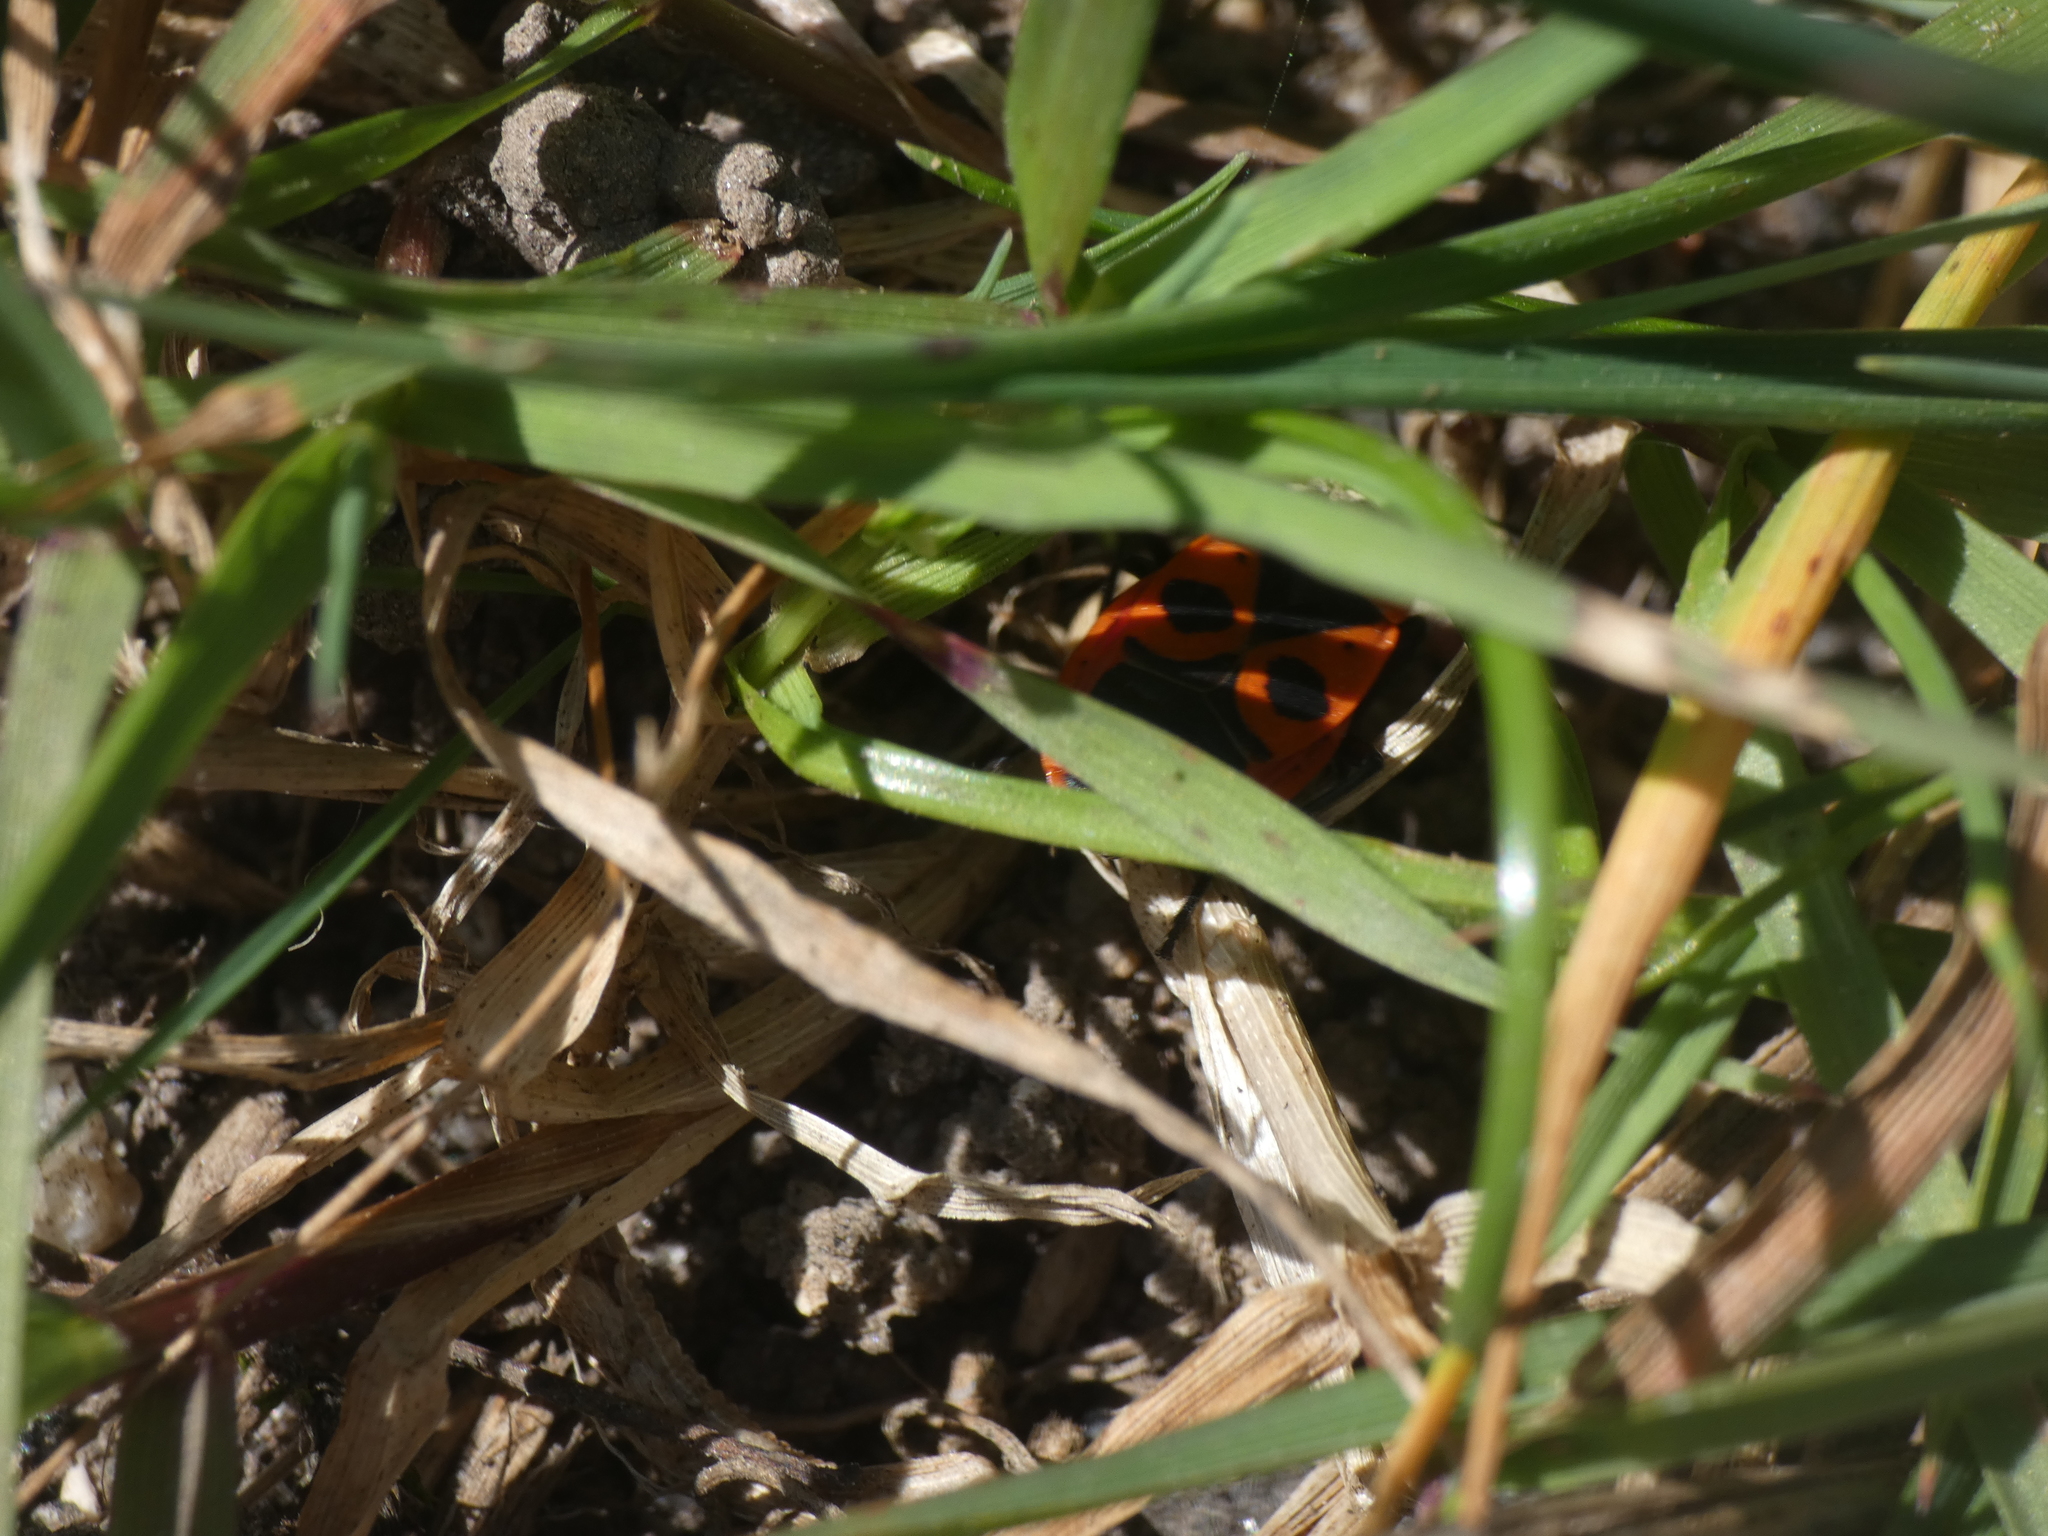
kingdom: Animalia
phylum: Arthropoda
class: Insecta
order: Hemiptera
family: Pyrrhocoridae
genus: Pyrrhocoris
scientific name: Pyrrhocoris apterus
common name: Firebug
